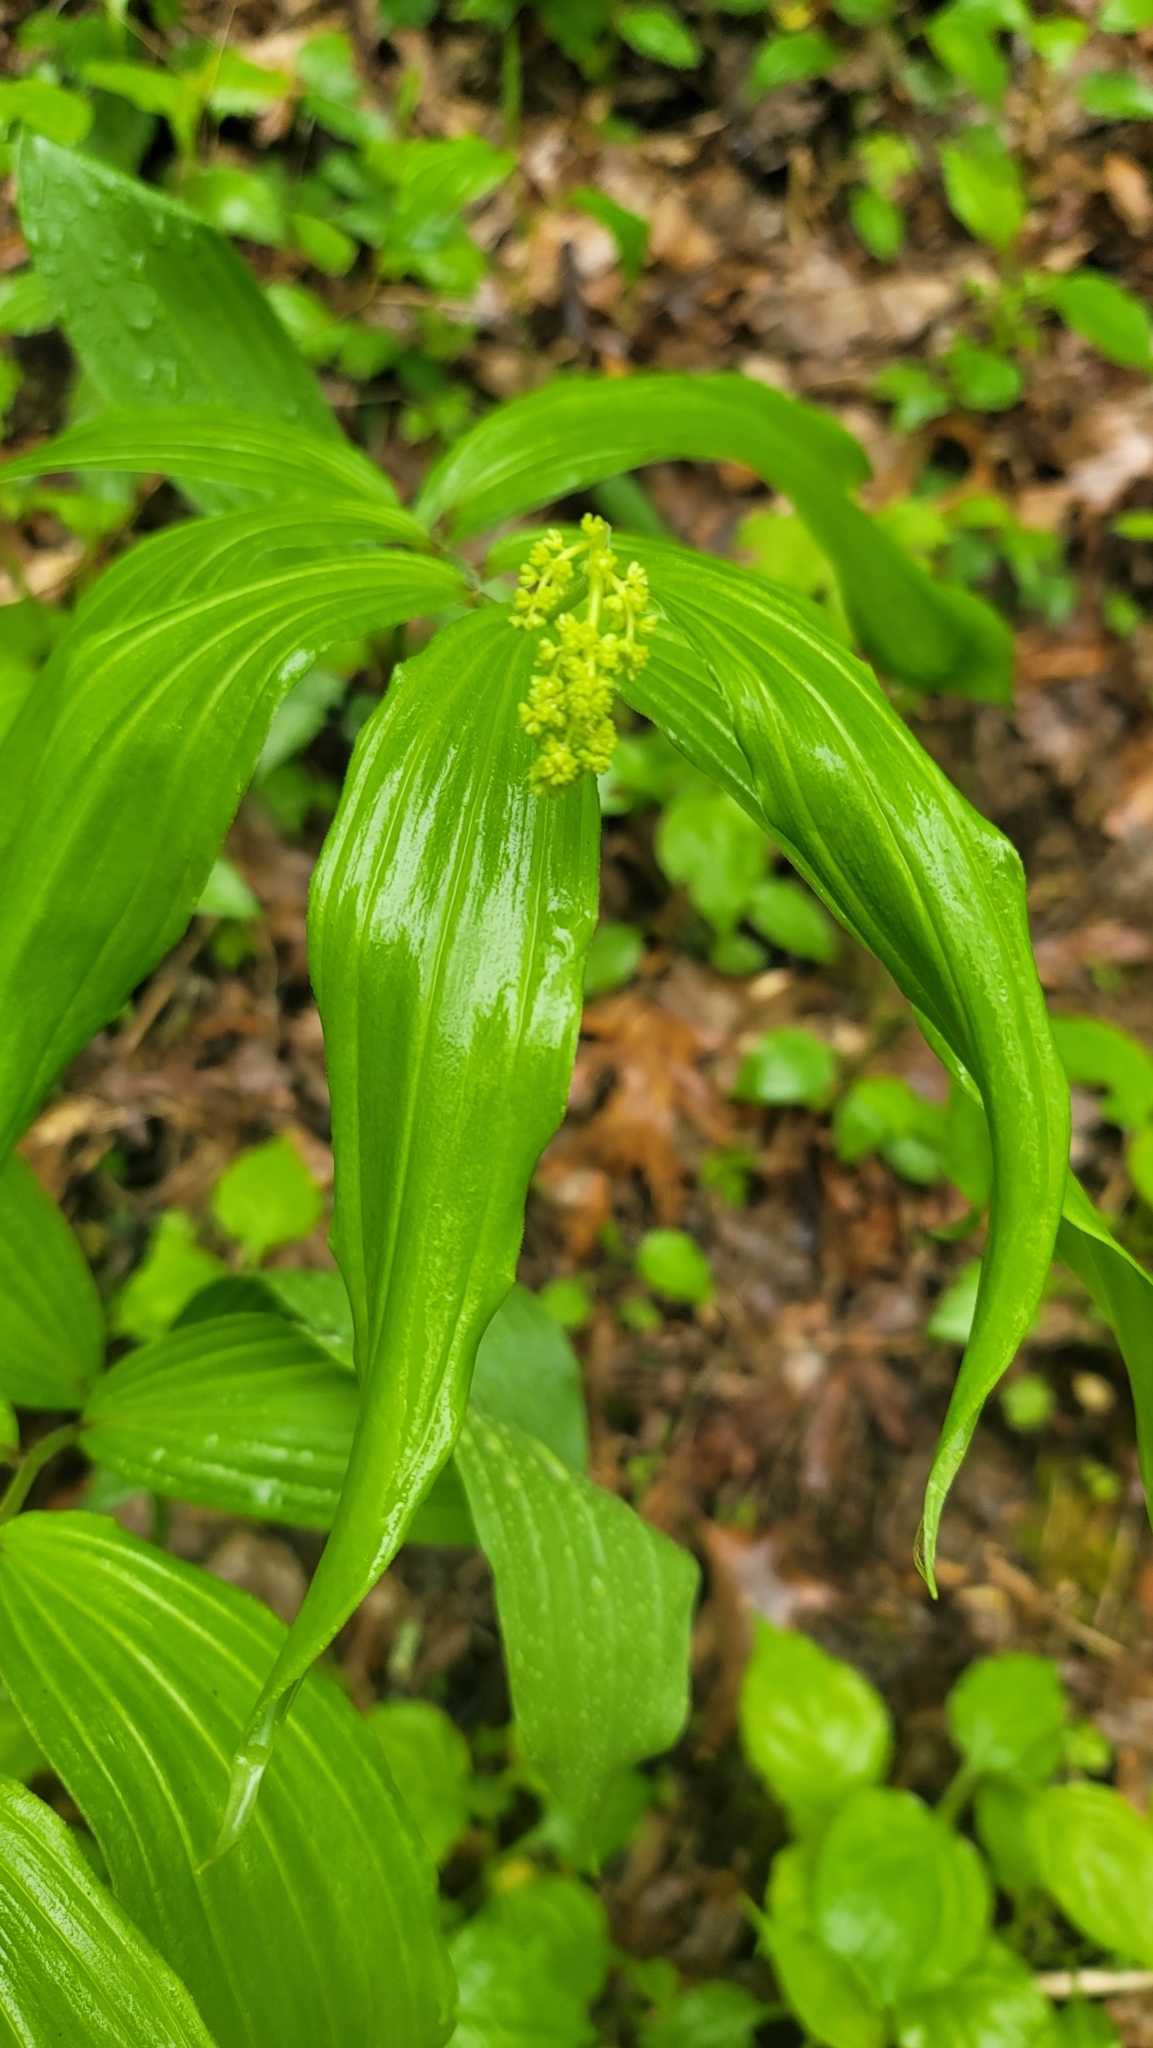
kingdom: Plantae
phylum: Tracheophyta
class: Liliopsida
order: Asparagales
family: Asparagaceae
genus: Maianthemum
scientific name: Maianthemum racemosum
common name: False spikenard
